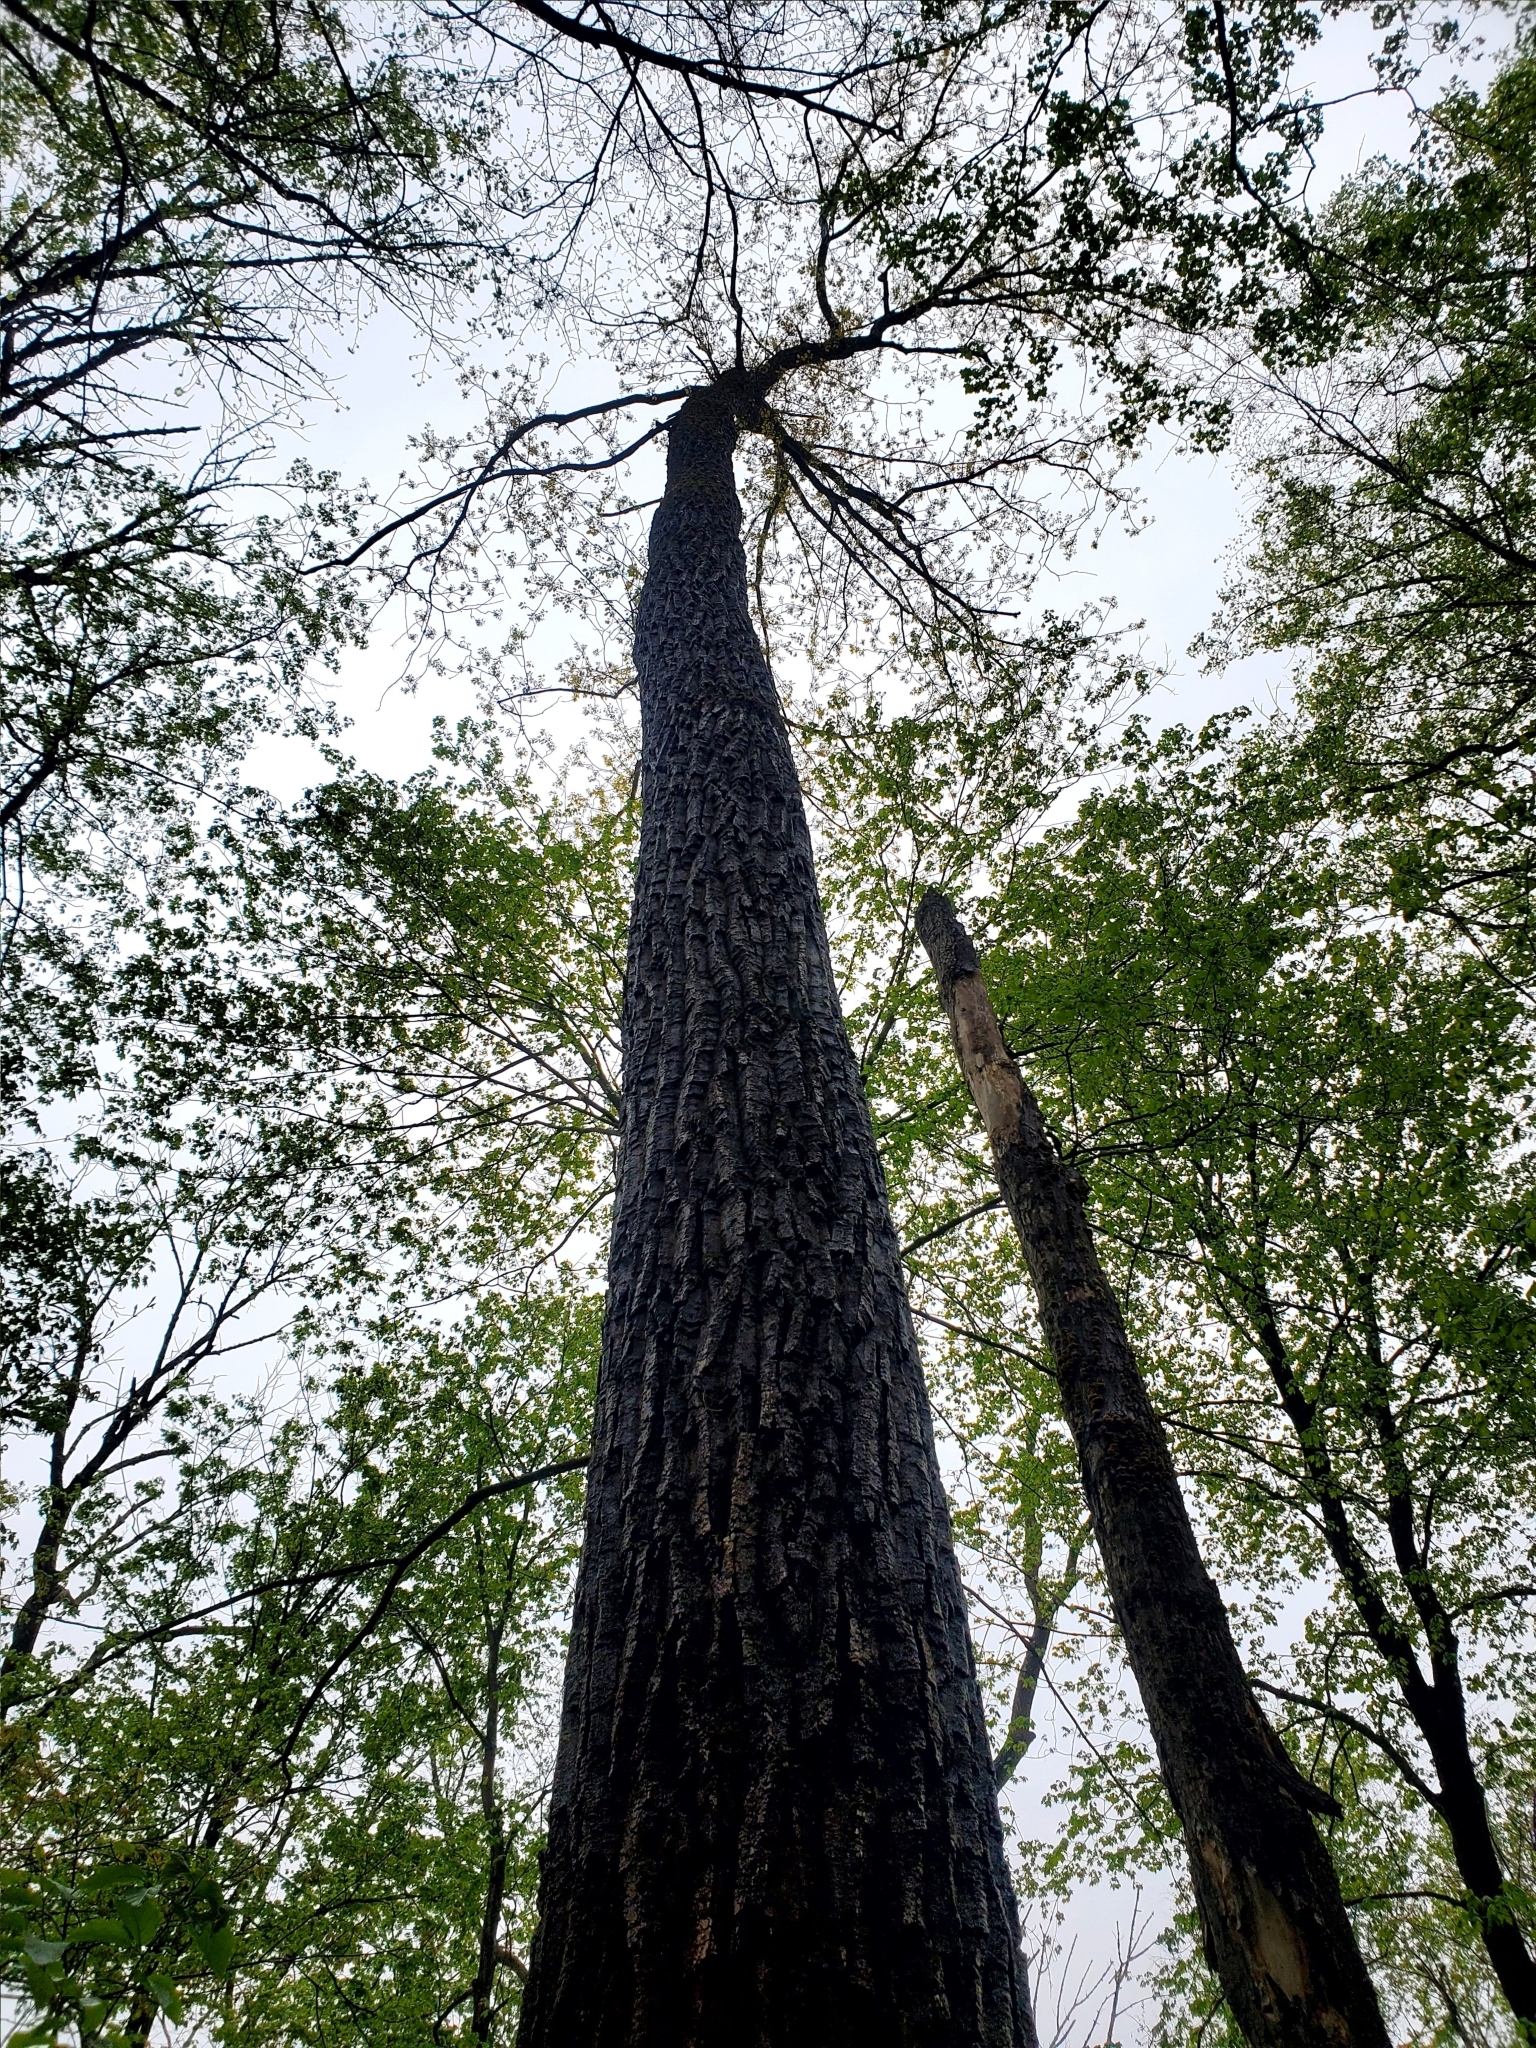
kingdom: Plantae
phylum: Tracheophyta
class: Magnoliopsida
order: Fagales
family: Fagaceae
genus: Quercus
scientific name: Quercus montana
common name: Chestnut oak
